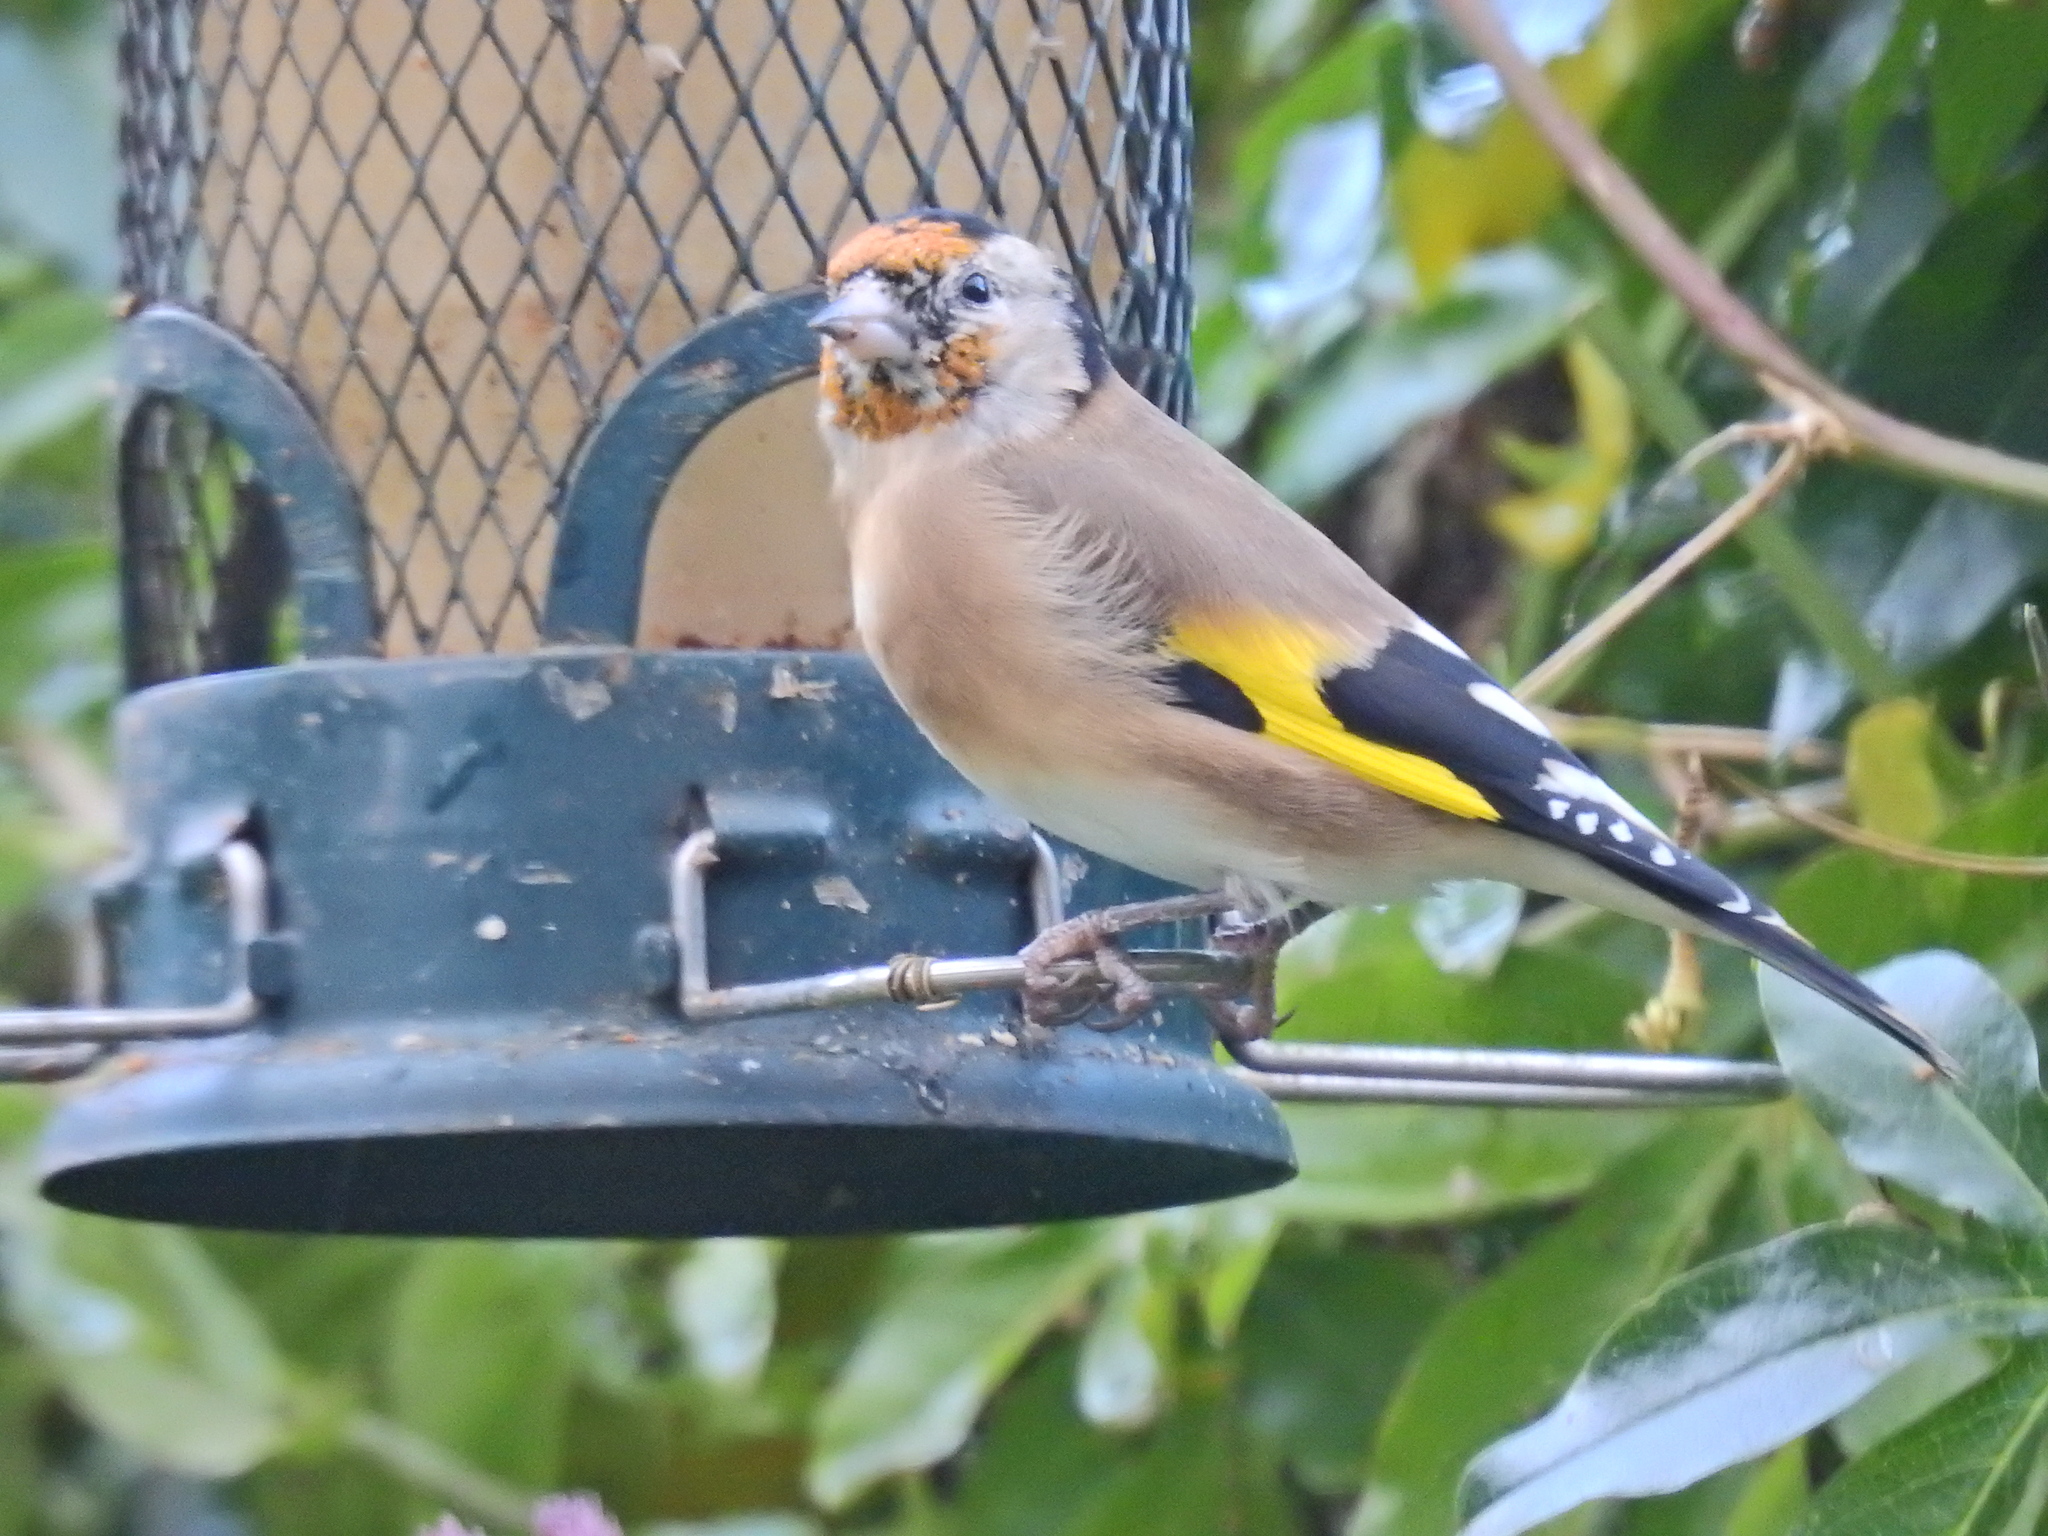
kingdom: Animalia
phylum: Chordata
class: Aves
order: Passeriformes
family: Fringillidae
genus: Carduelis
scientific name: Carduelis carduelis
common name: European goldfinch
